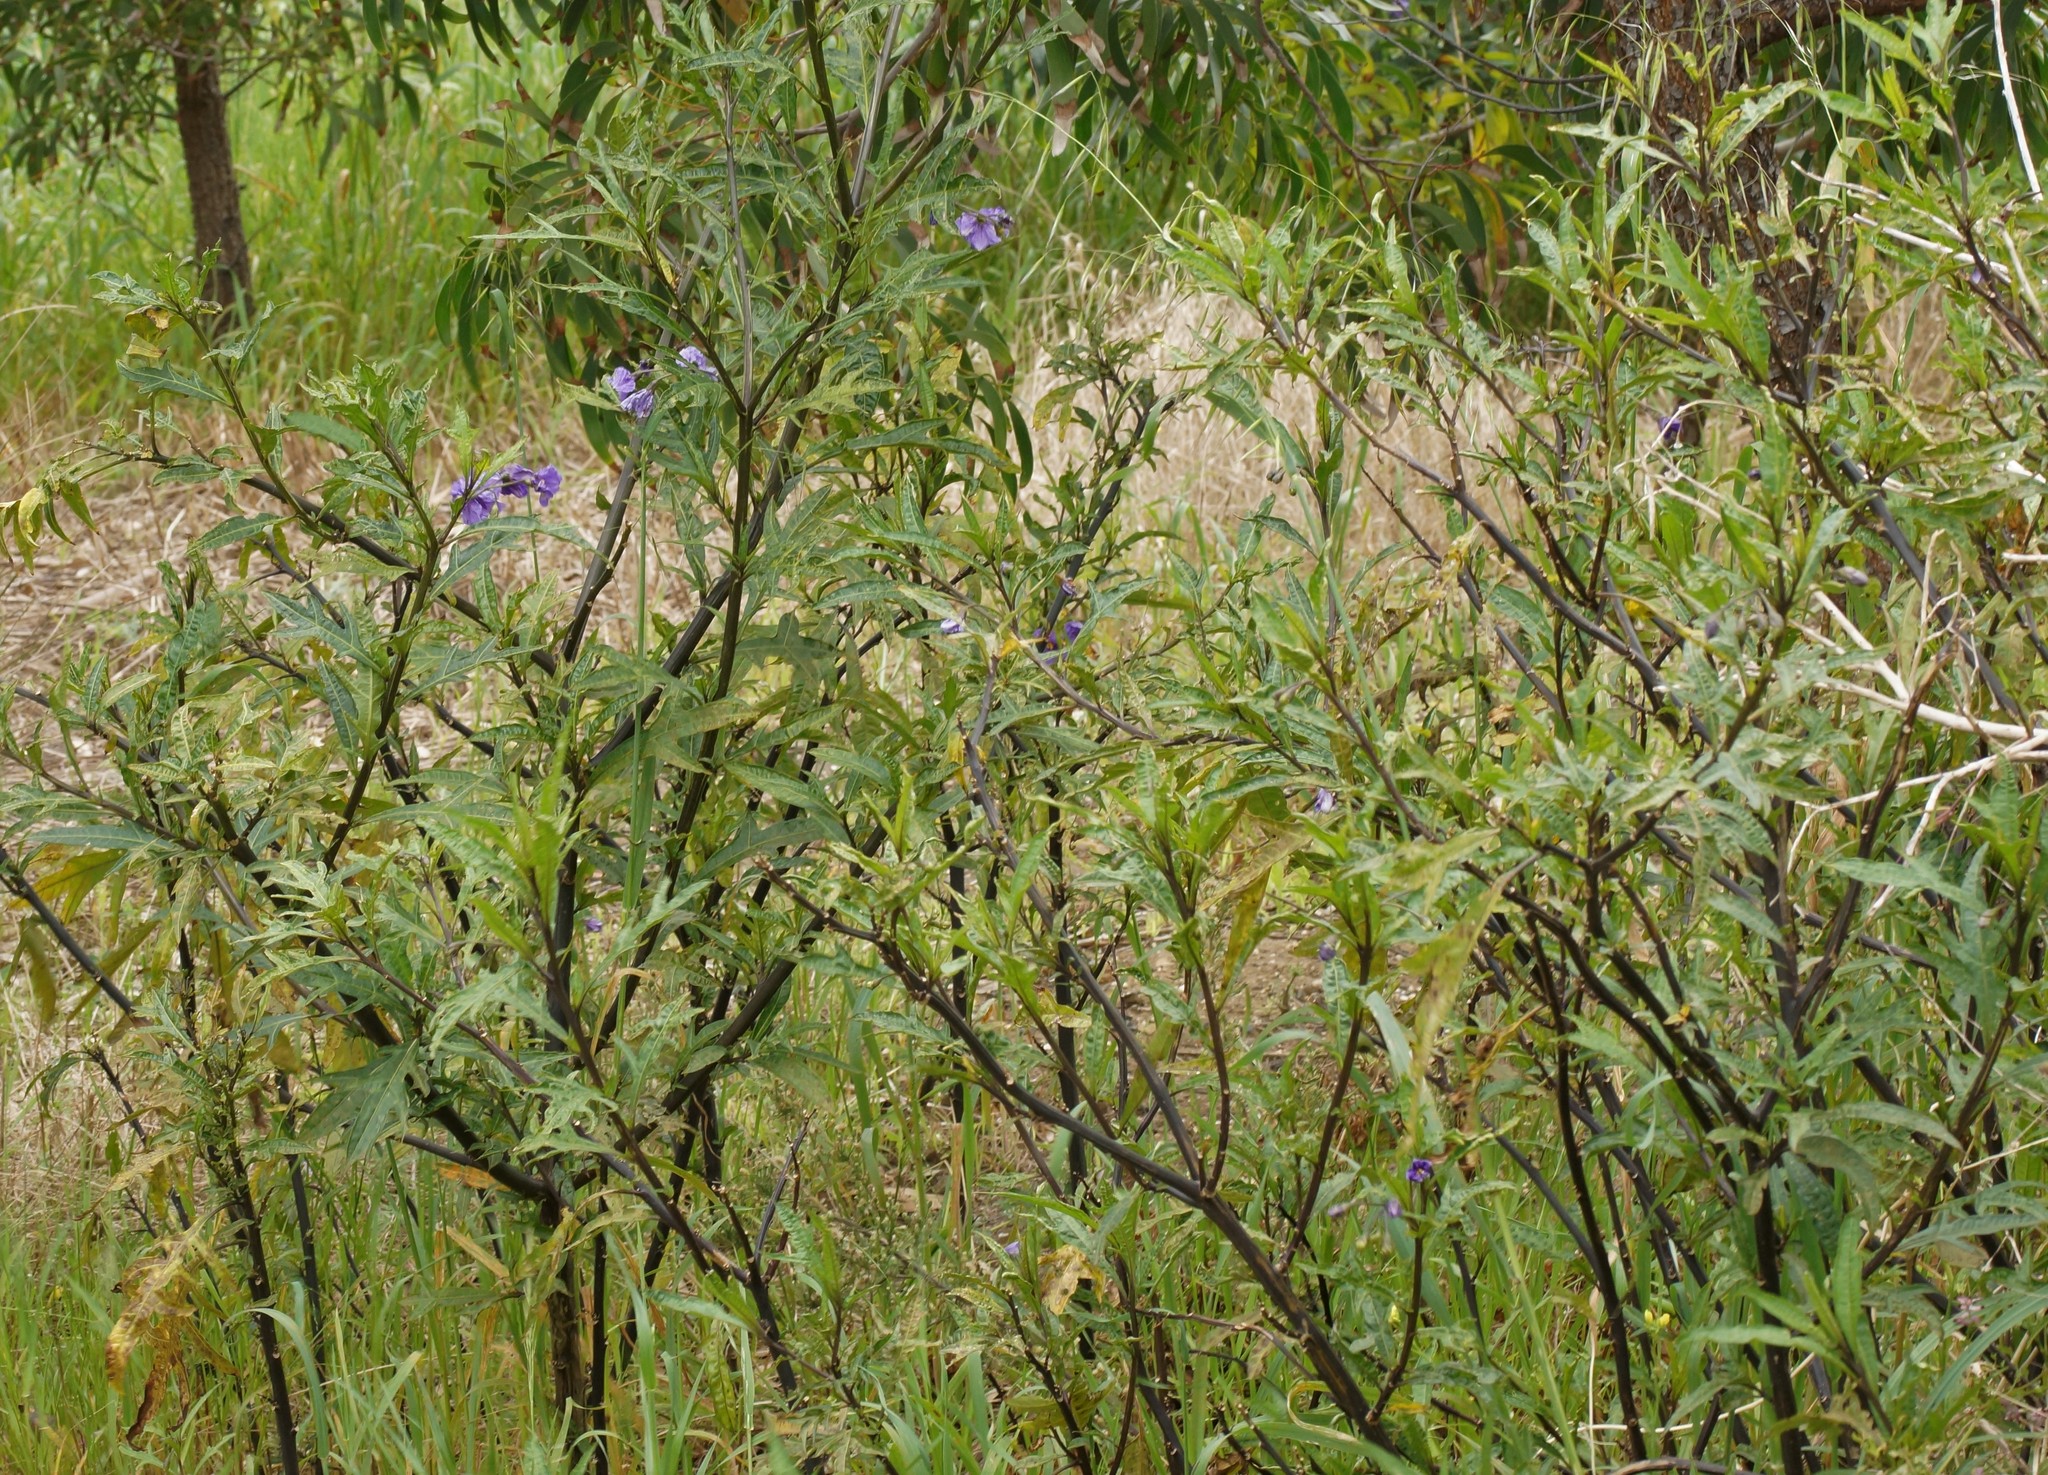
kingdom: Plantae
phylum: Tracheophyta
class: Magnoliopsida
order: Solanales
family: Solanaceae
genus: Solanum
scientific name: Solanum laciniatum
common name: Kangaroo-apple
